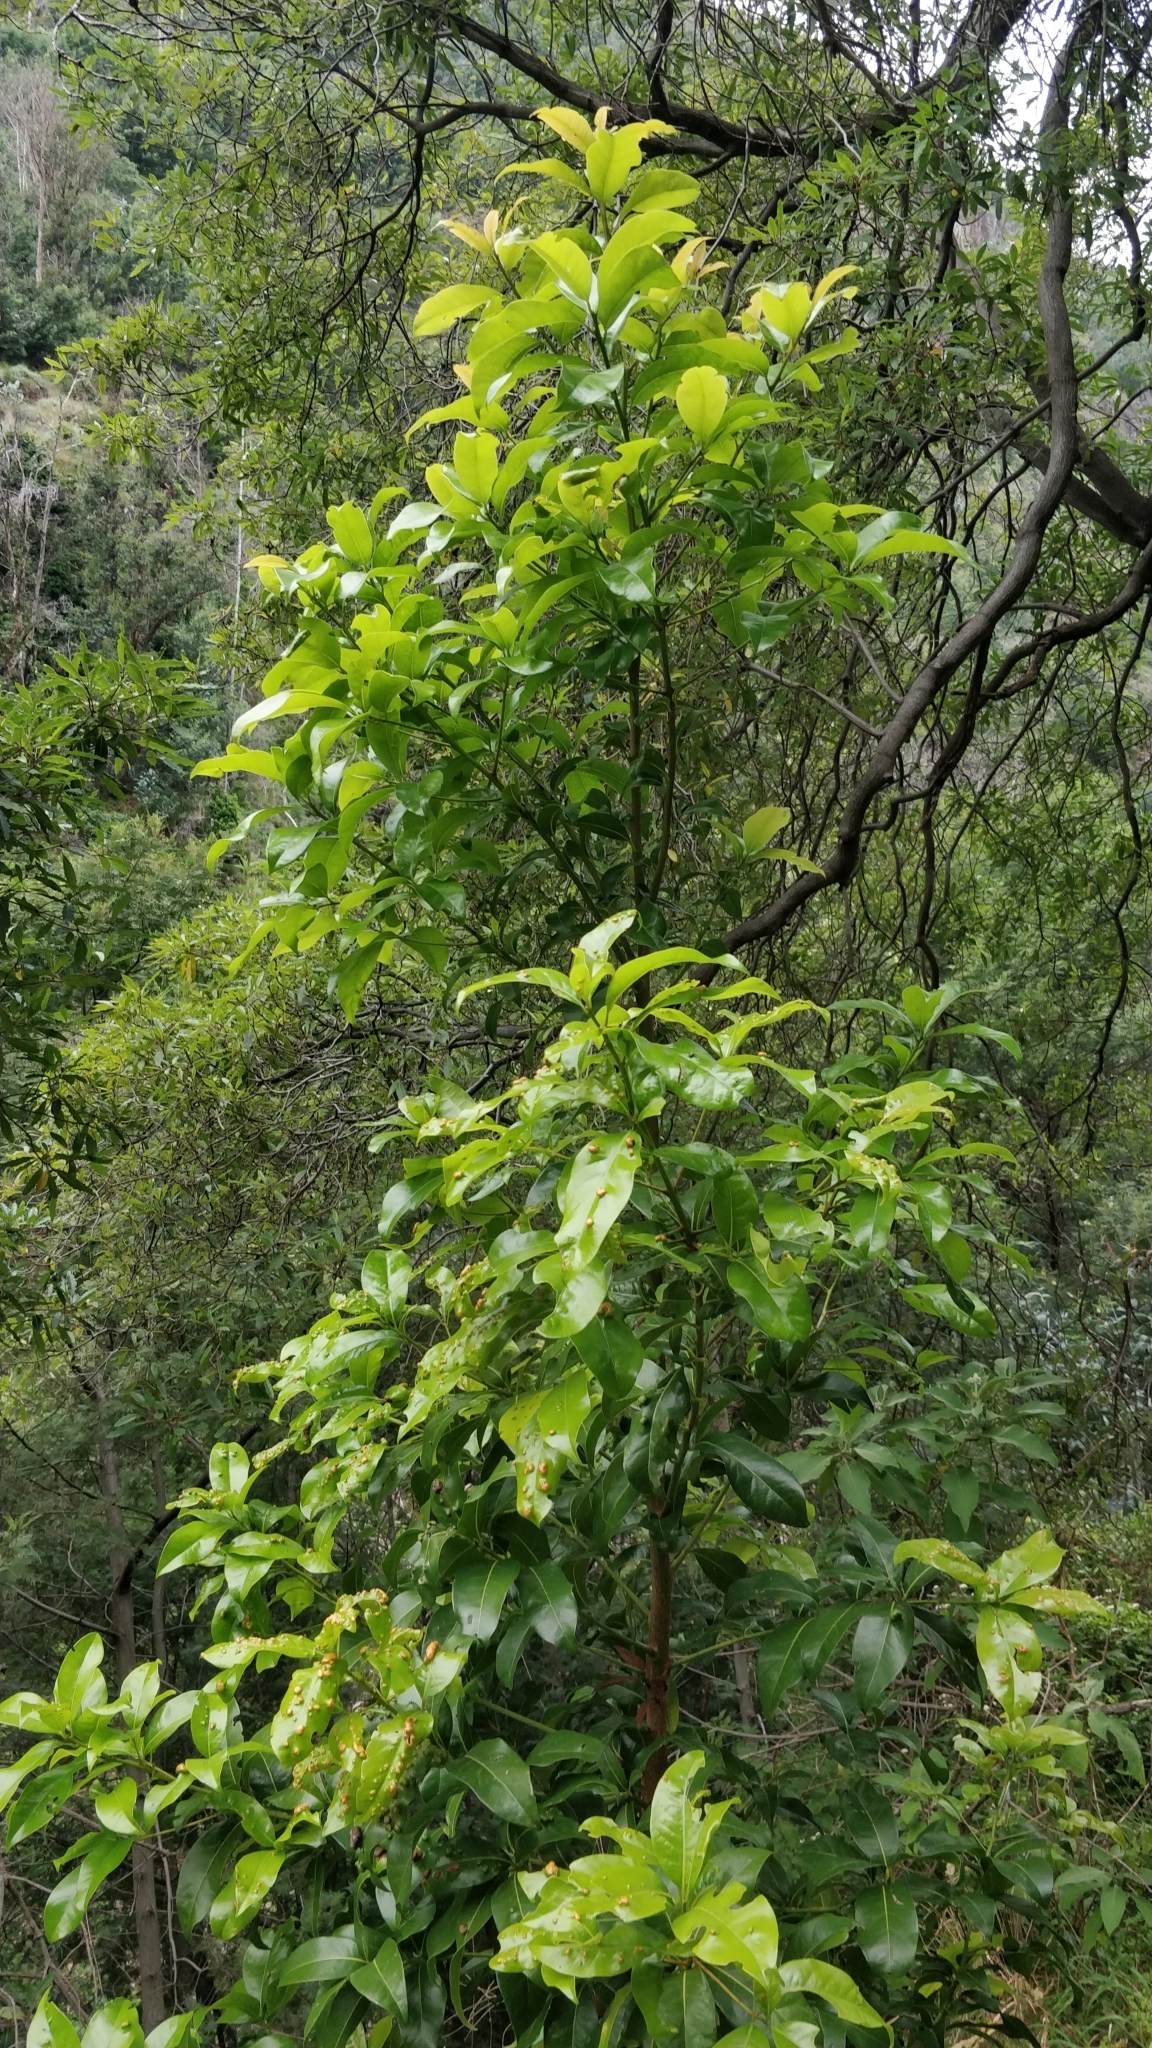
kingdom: Plantae
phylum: Tracheophyta
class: Magnoliopsida
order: Laurales
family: Lauraceae
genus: Apollonias
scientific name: Apollonias barbujana
